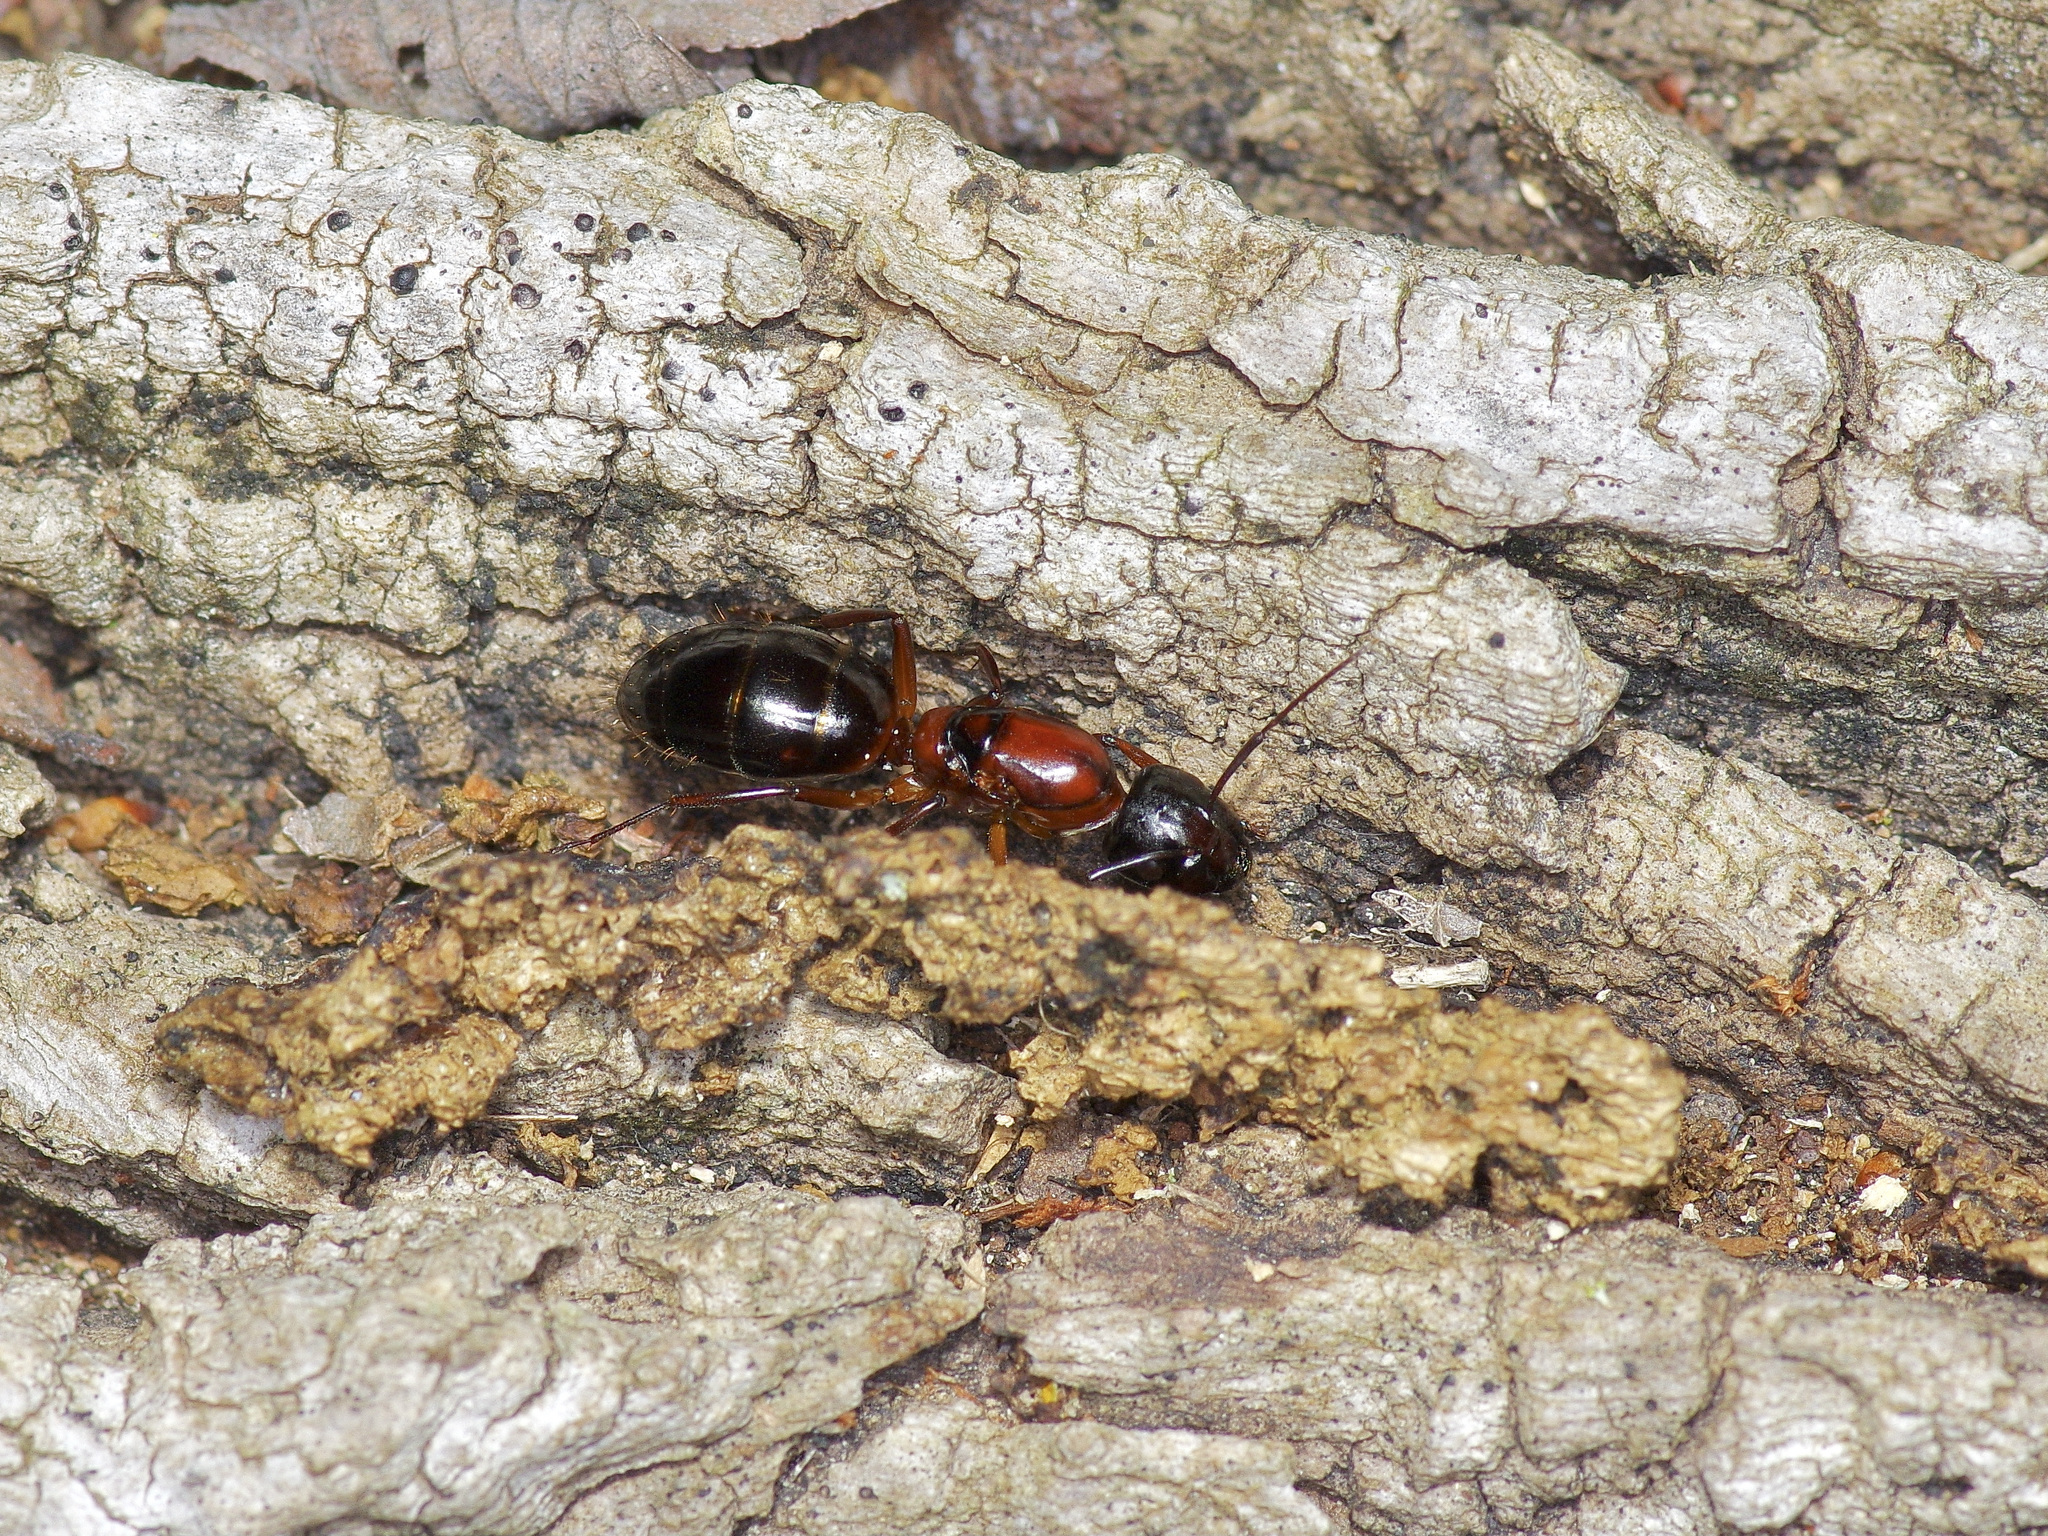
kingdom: Animalia
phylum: Arthropoda
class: Insecta
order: Hymenoptera
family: Formicidae
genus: Camponotus
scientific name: Camponotus texanus
